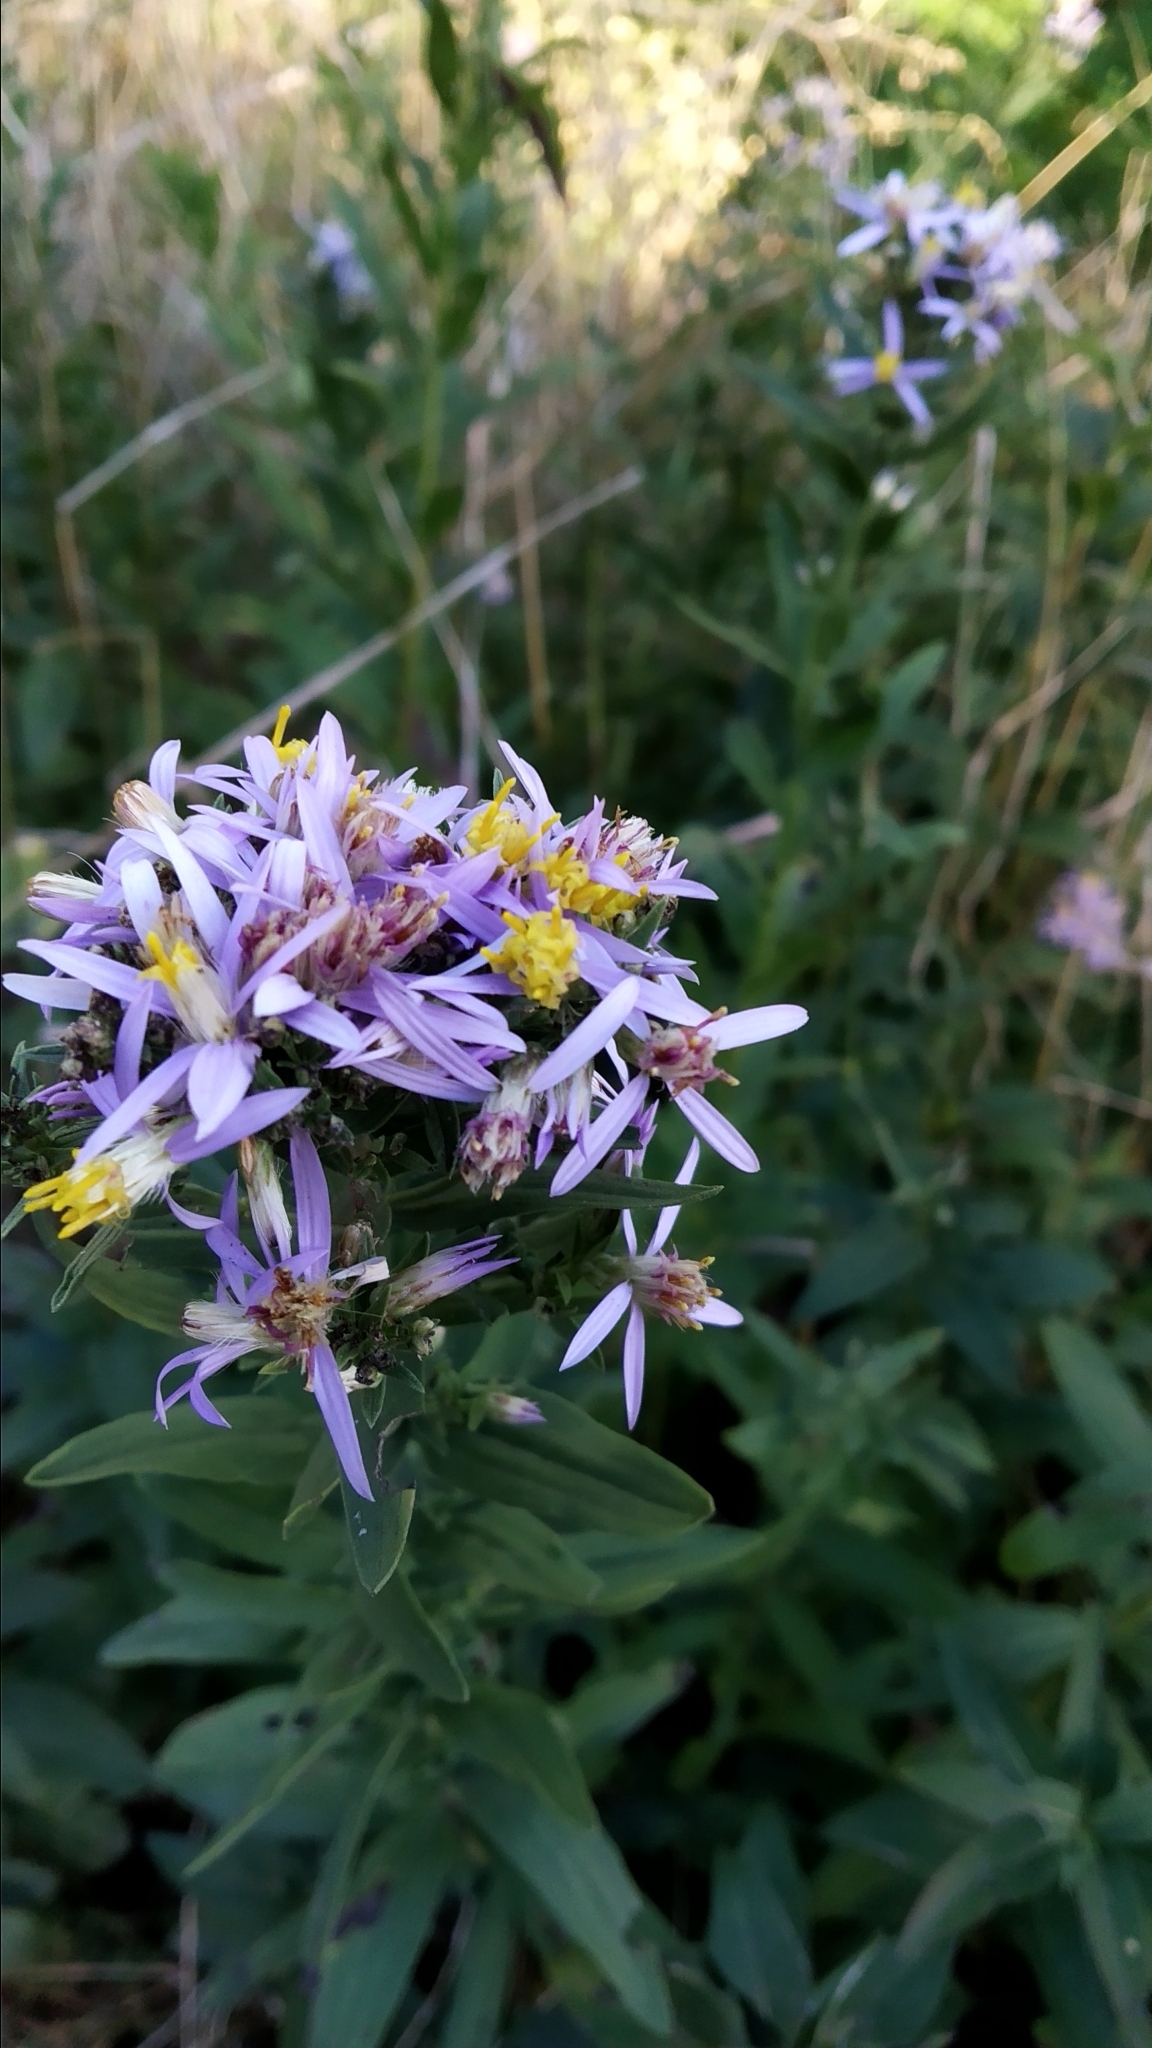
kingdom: Plantae
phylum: Tracheophyta
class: Magnoliopsida
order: Asterales
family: Asteraceae
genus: Galatella
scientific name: Galatella sedifolia
